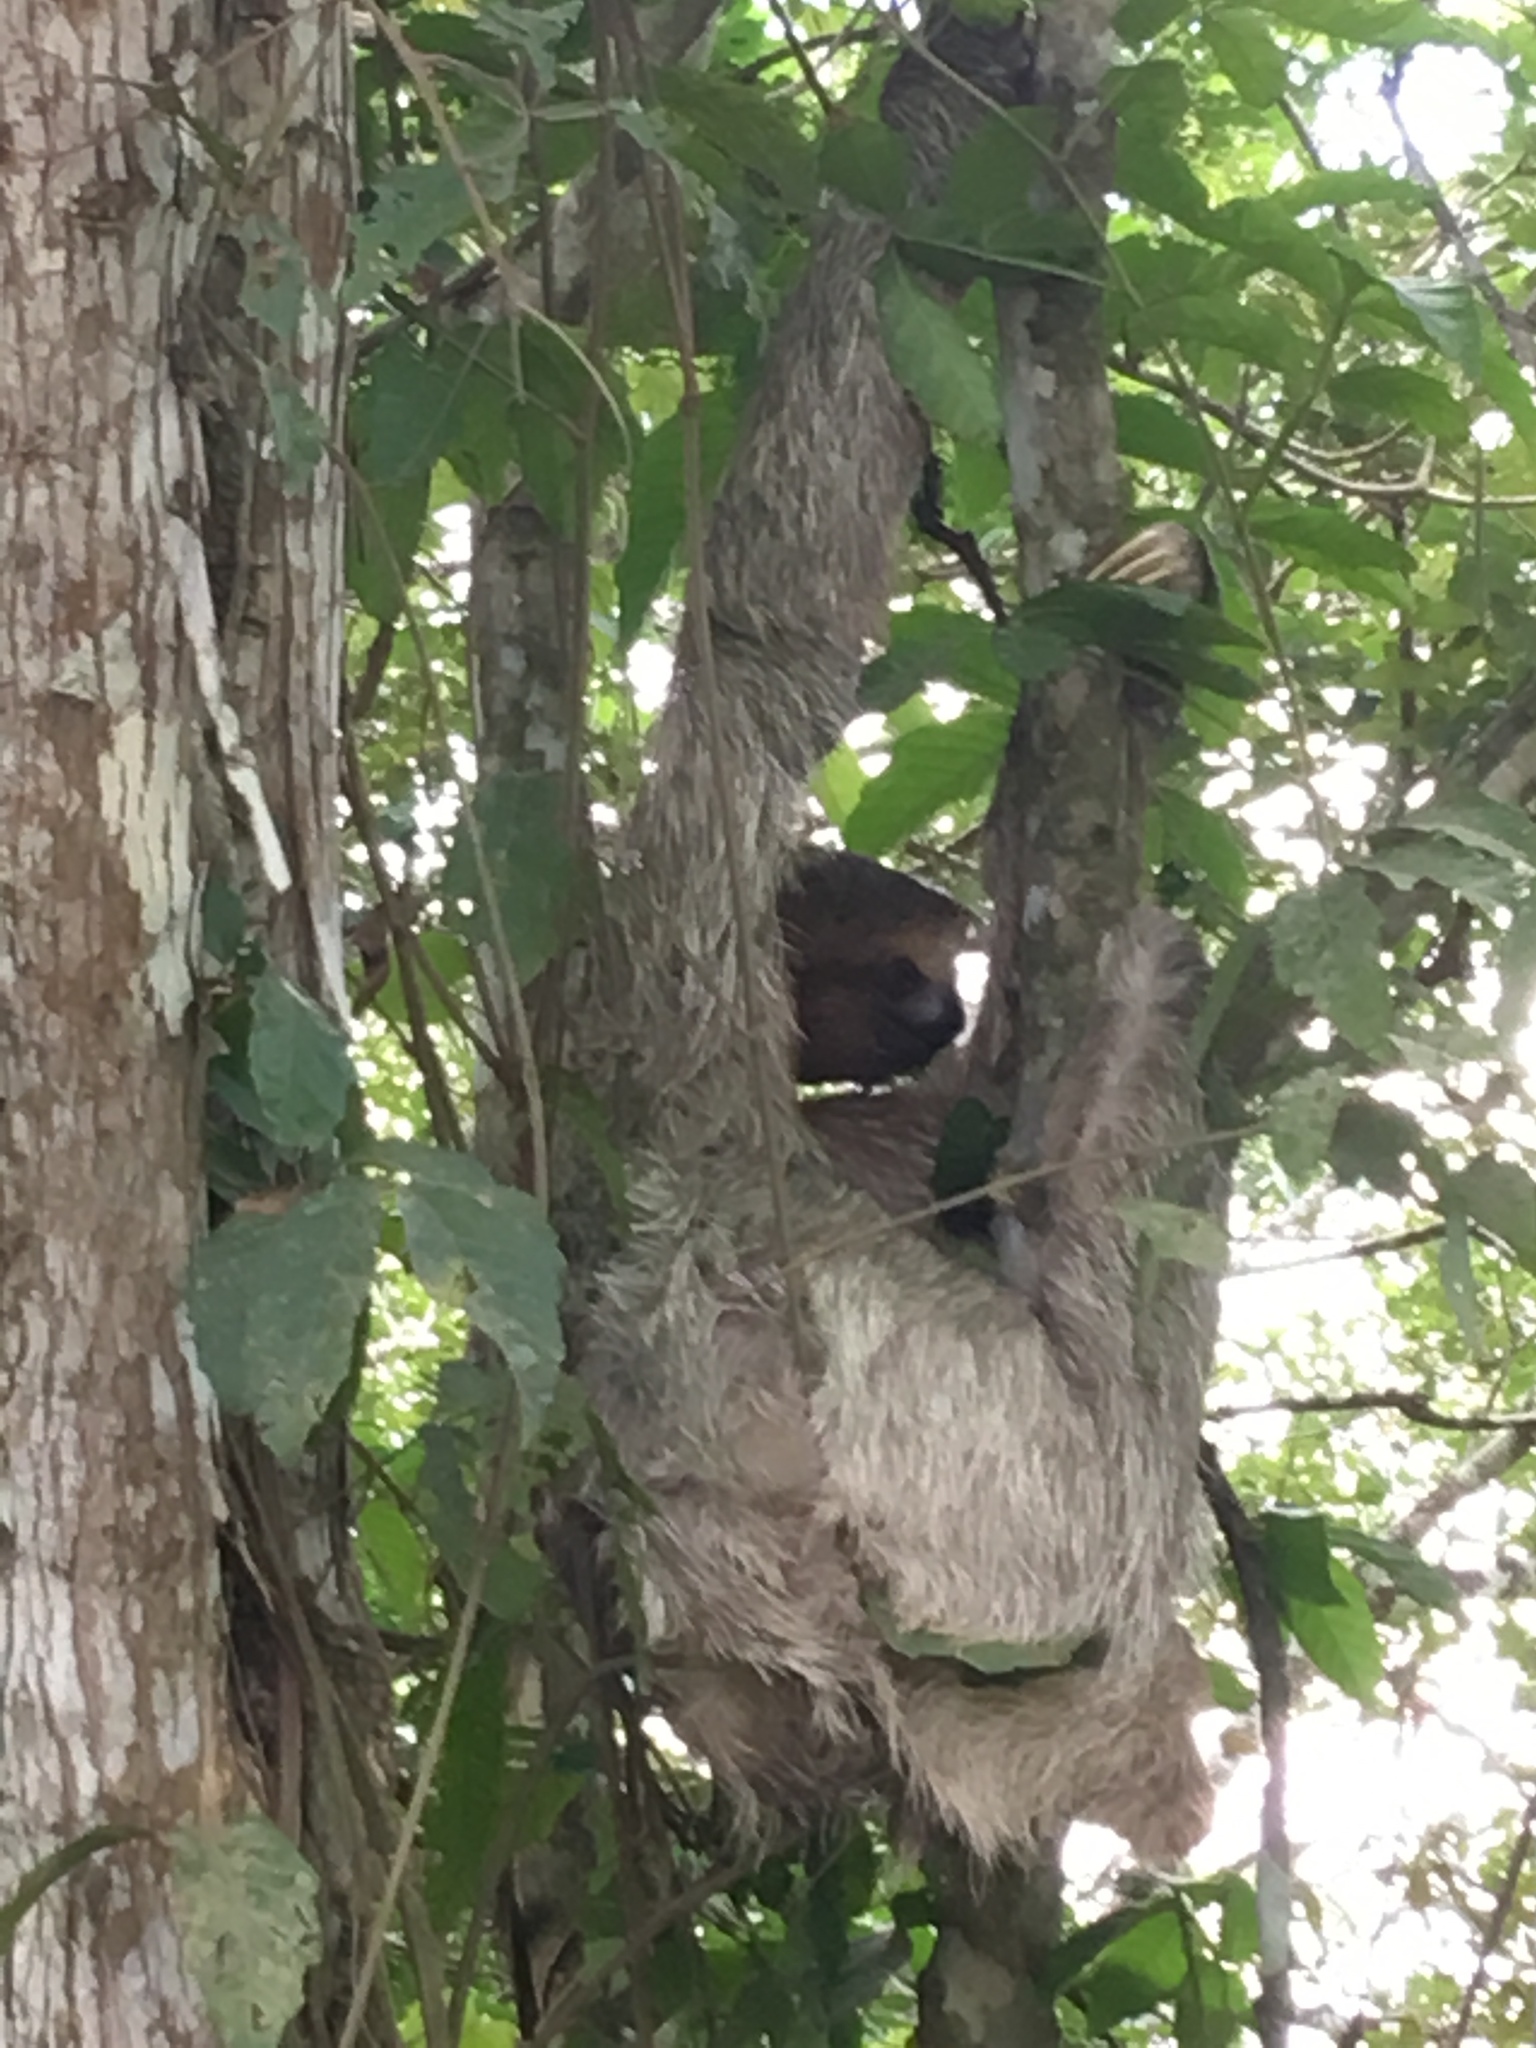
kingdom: Animalia
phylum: Chordata
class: Mammalia
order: Pilosa
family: Bradypodidae
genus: Bradypus
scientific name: Bradypus variegatus
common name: Brown-throated three-toed sloth
